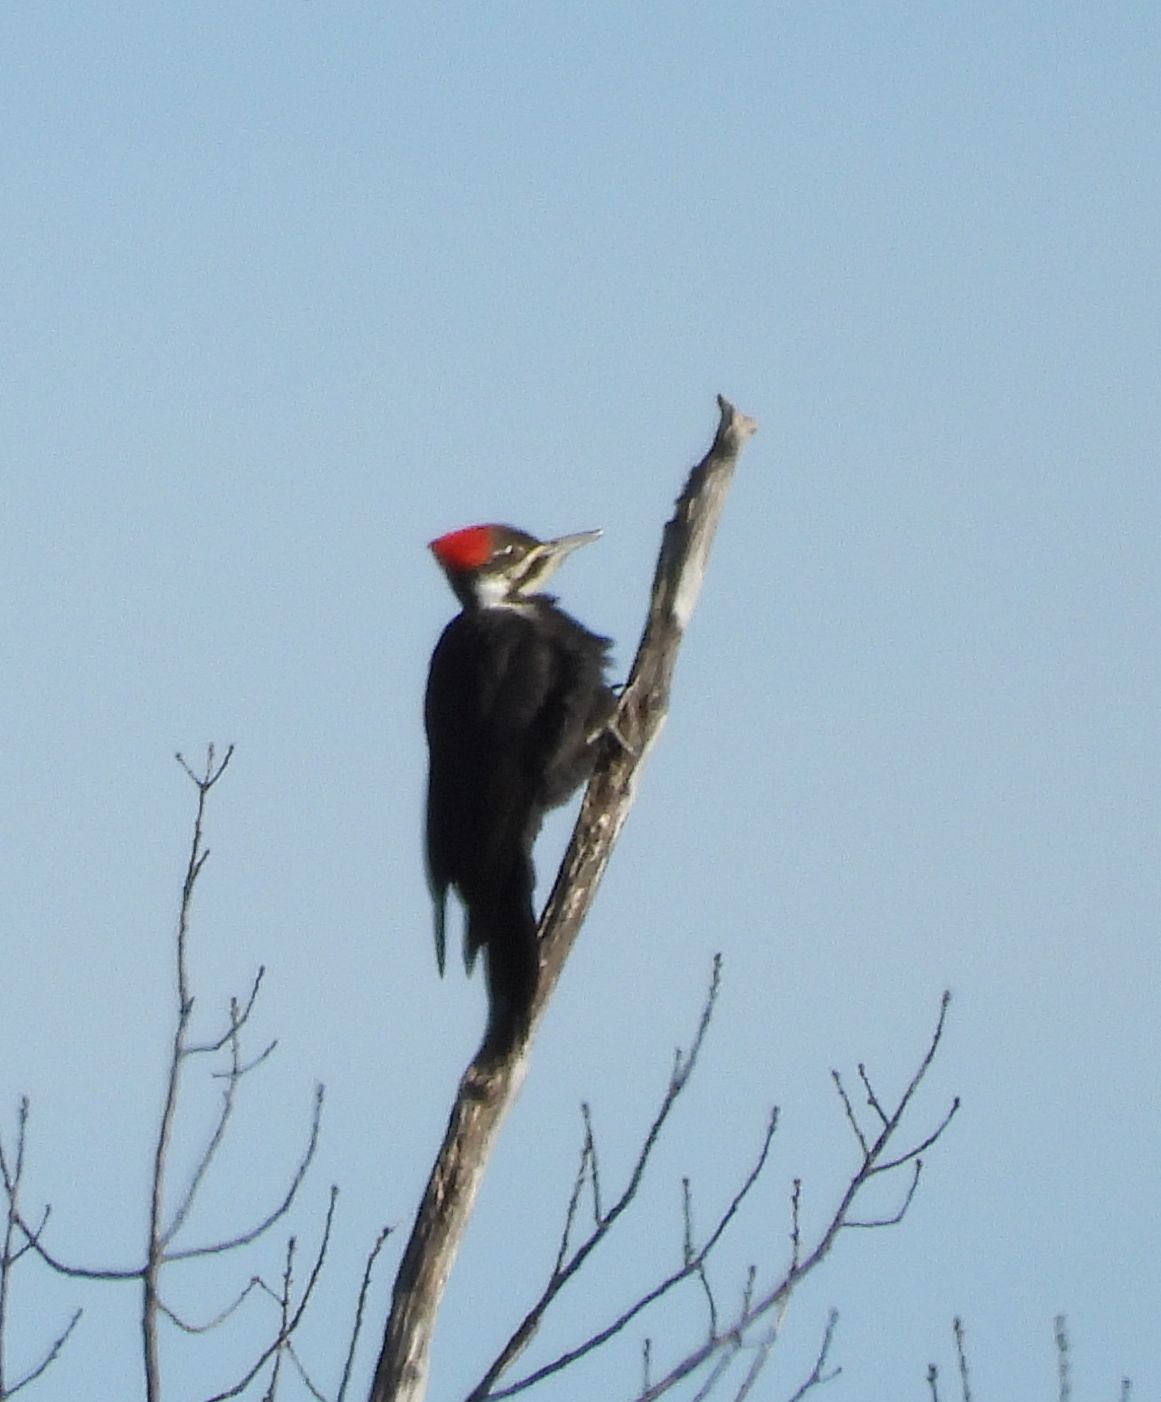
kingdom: Animalia
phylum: Chordata
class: Aves
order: Piciformes
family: Picidae
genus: Dryocopus
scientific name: Dryocopus pileatus
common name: Pileated woodpecker
